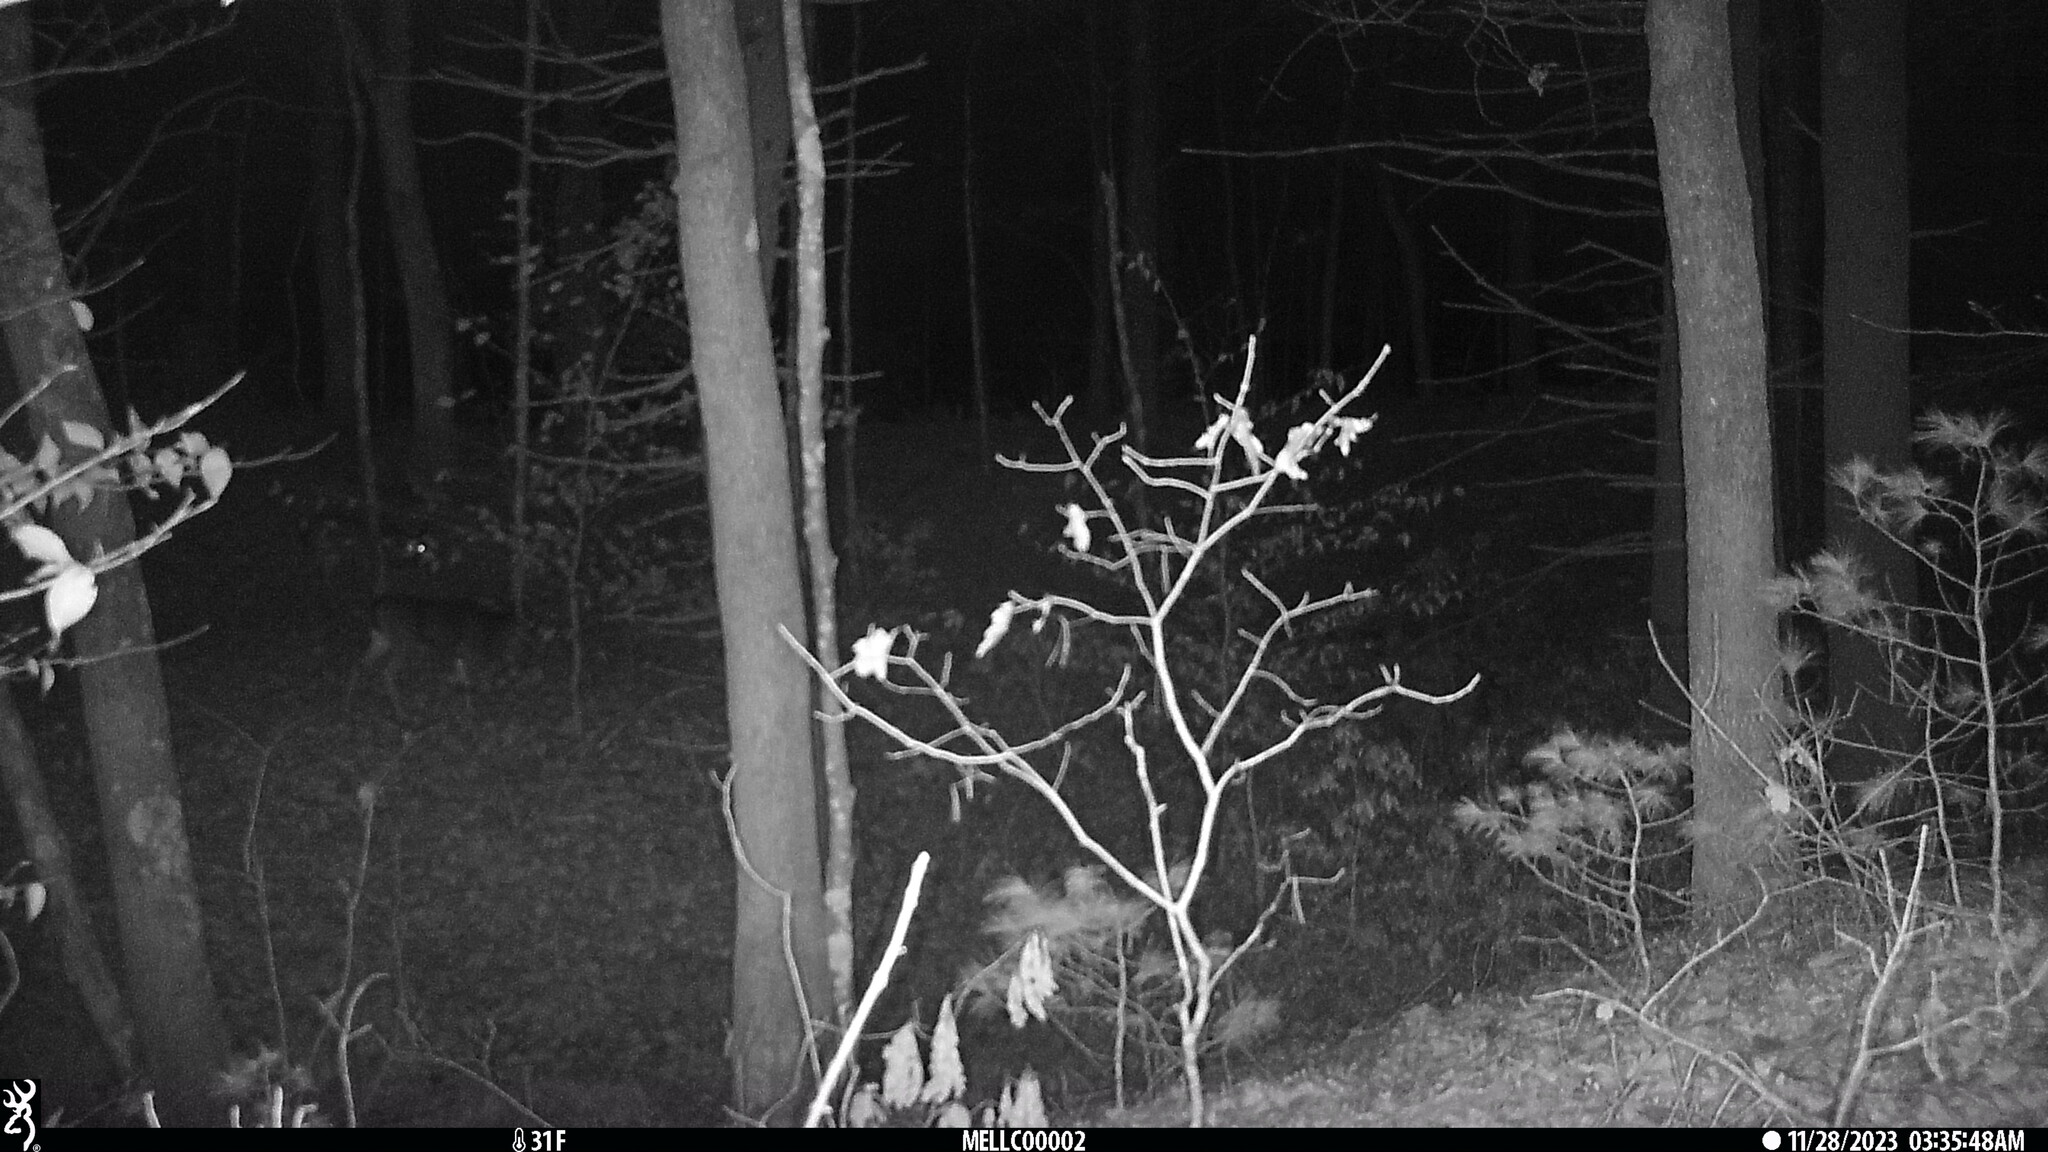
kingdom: Animalia
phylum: Chordata
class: Mammalia
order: Artiodactyla
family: Cervidae
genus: Odocoileus
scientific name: Odocoileus virginianus
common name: White-tailed deer
